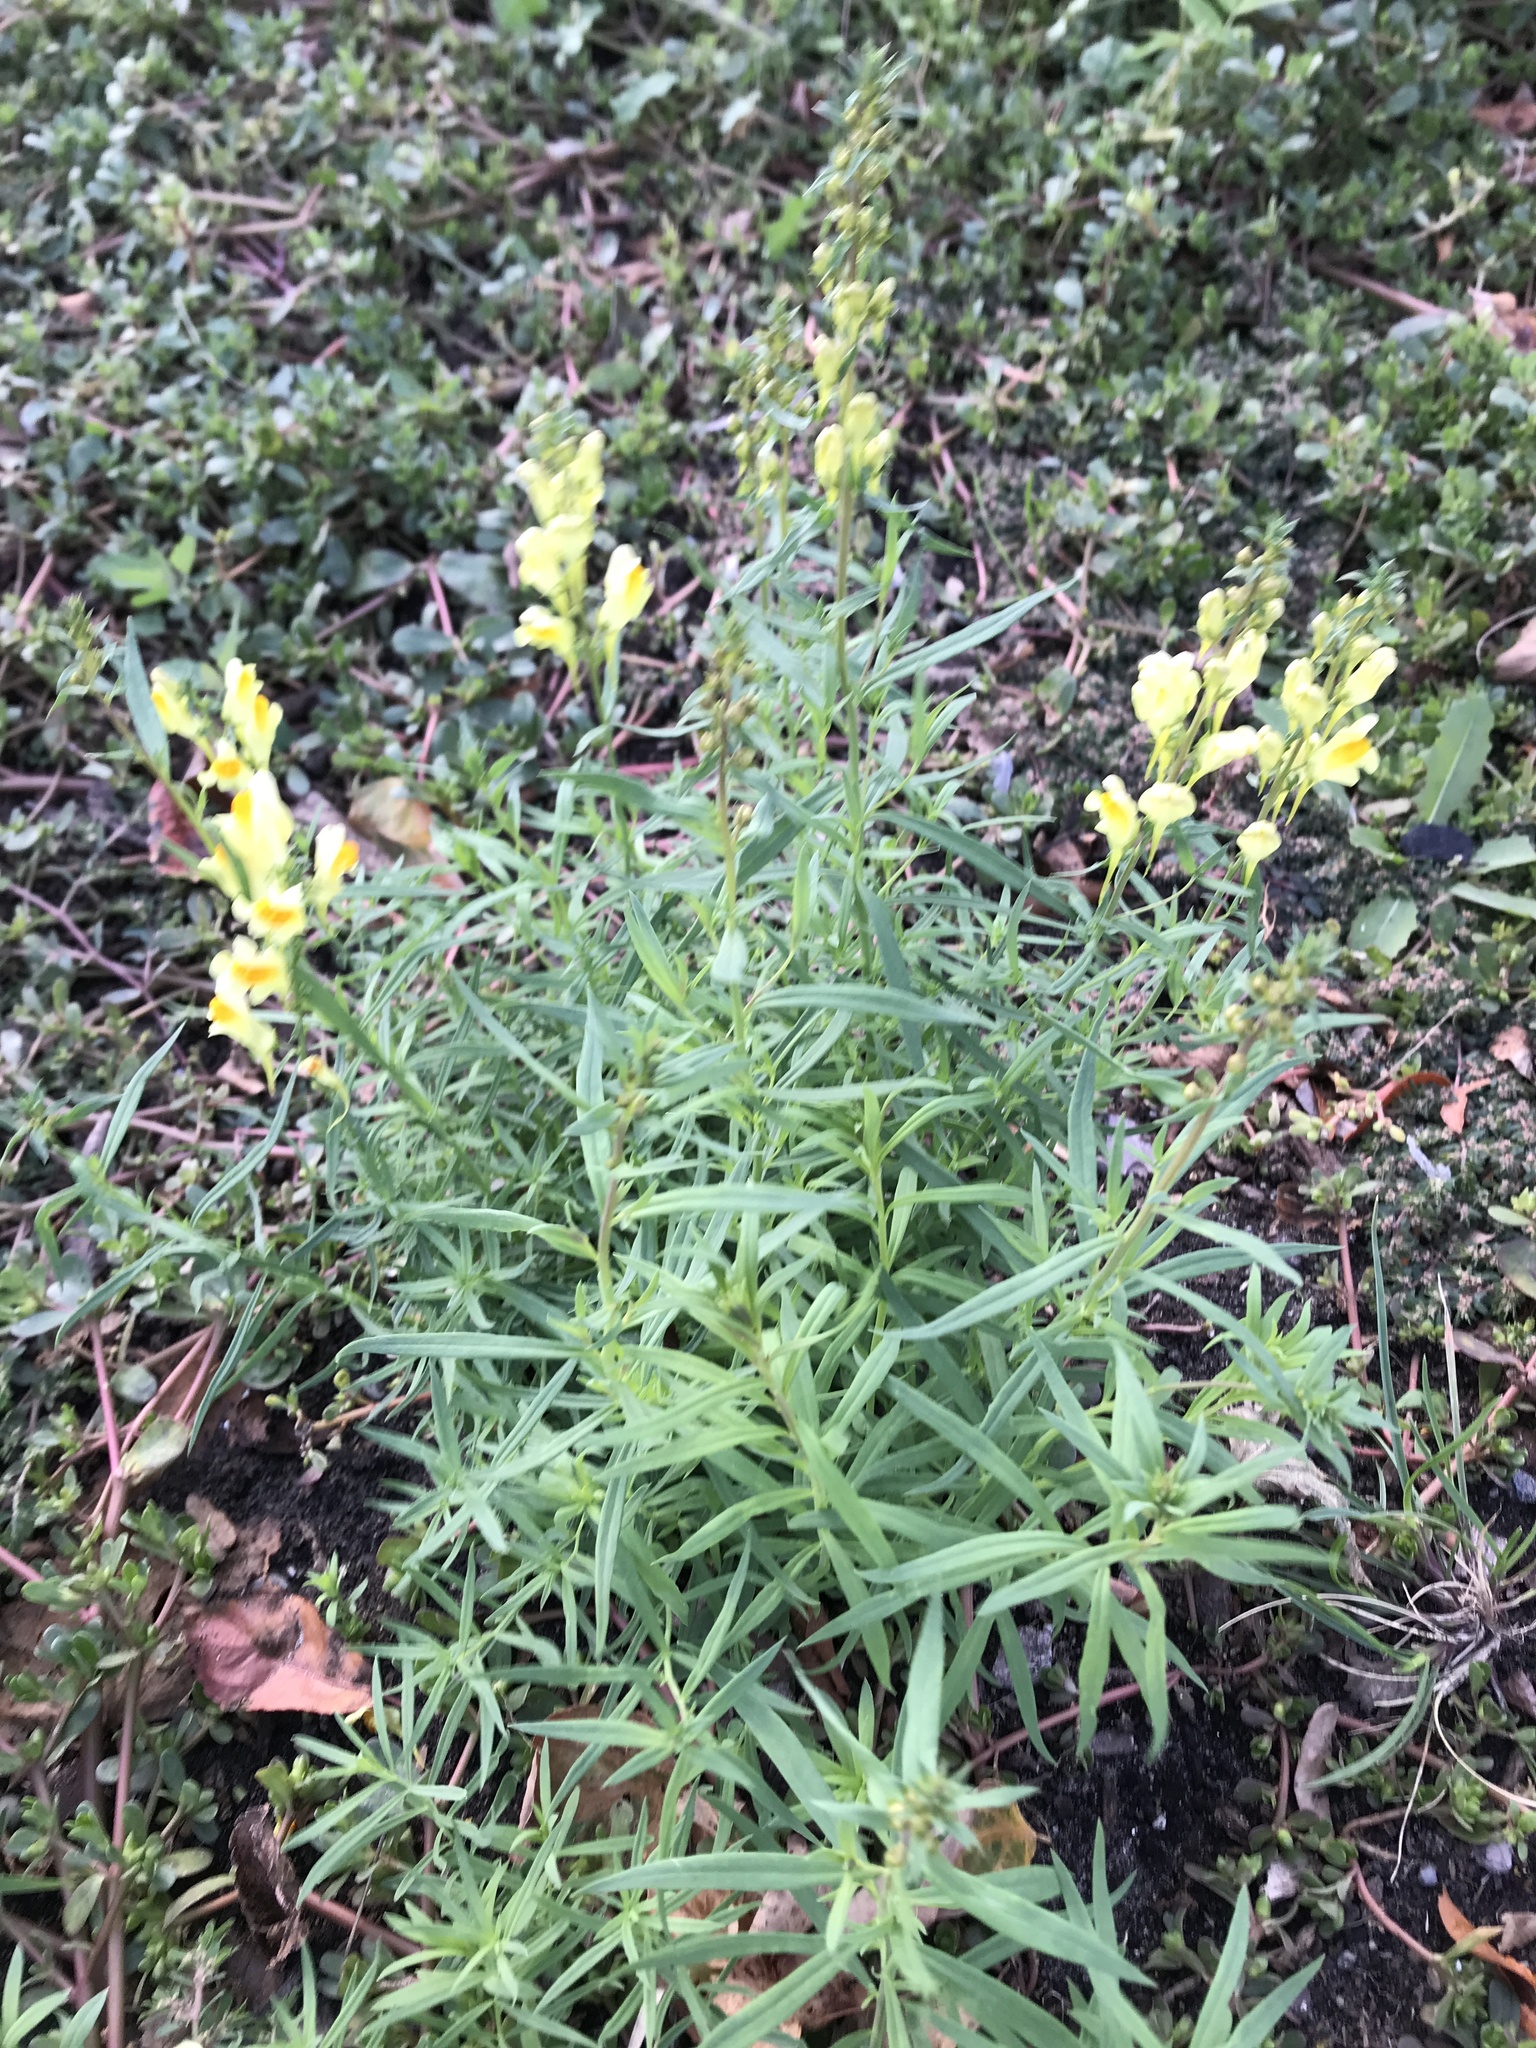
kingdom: Plantae
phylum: Tracheophyta
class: Magnoliopsida
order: Lamiales
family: Plantaginaceae
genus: Linaria
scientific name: Linaria vulgaris
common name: Butter and eggs
